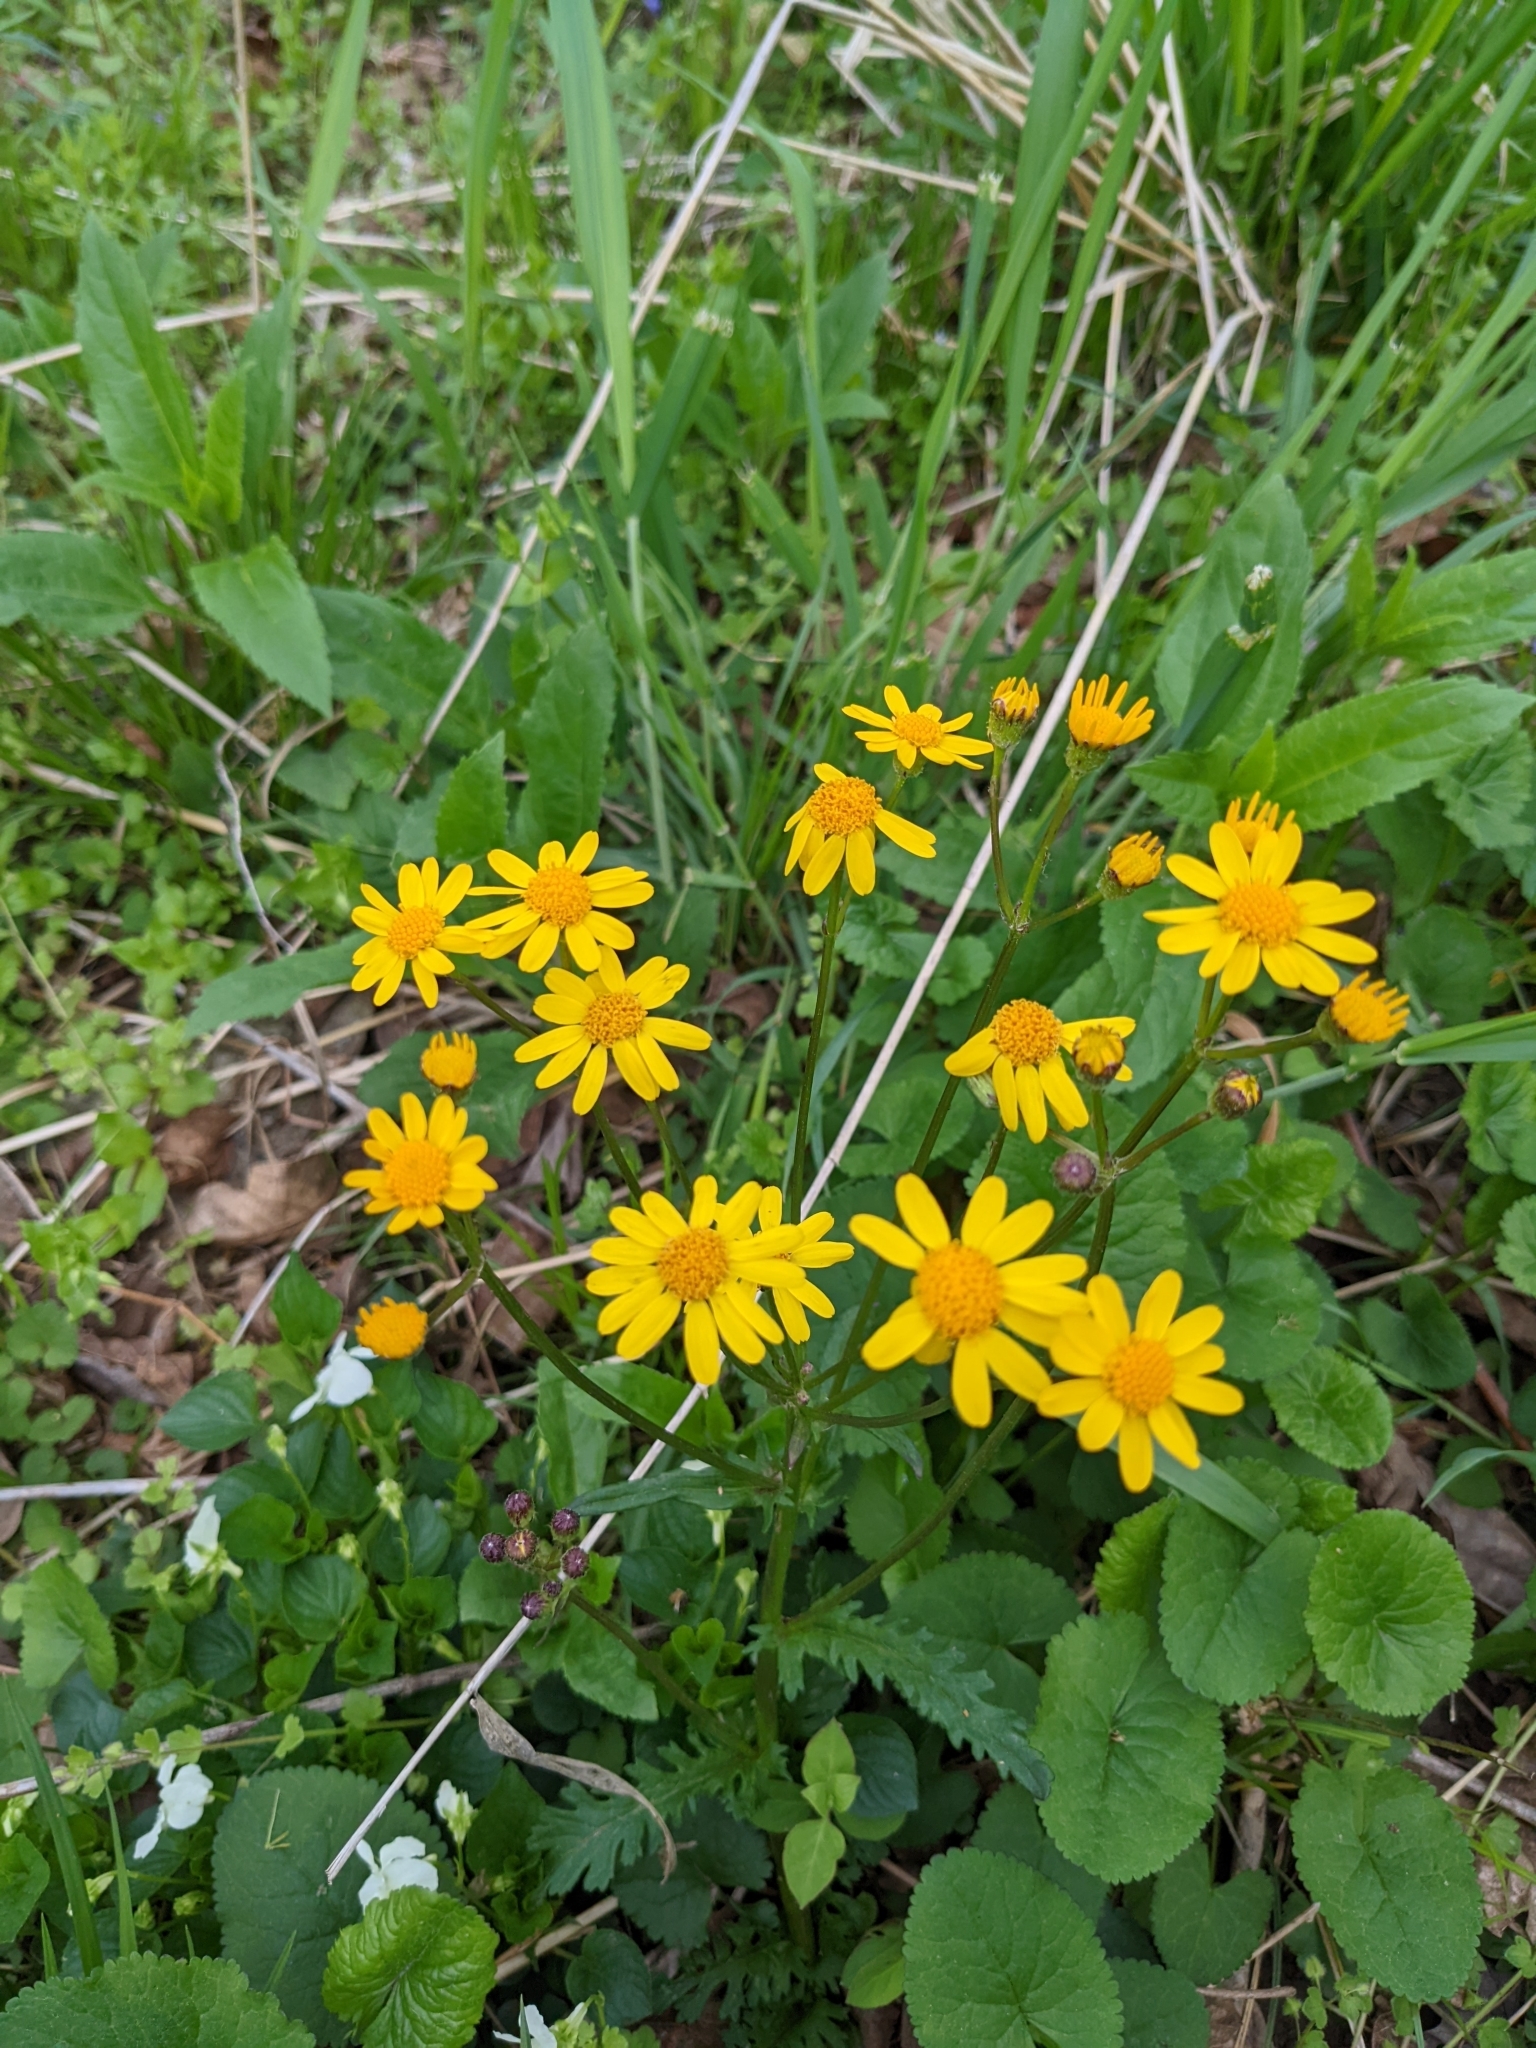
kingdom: Plantae
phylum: Tracheophyta
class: Magnoliopsida
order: Asterales
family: Asteraceae
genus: Packera
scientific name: Packera aurea
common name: Golden groundsel
